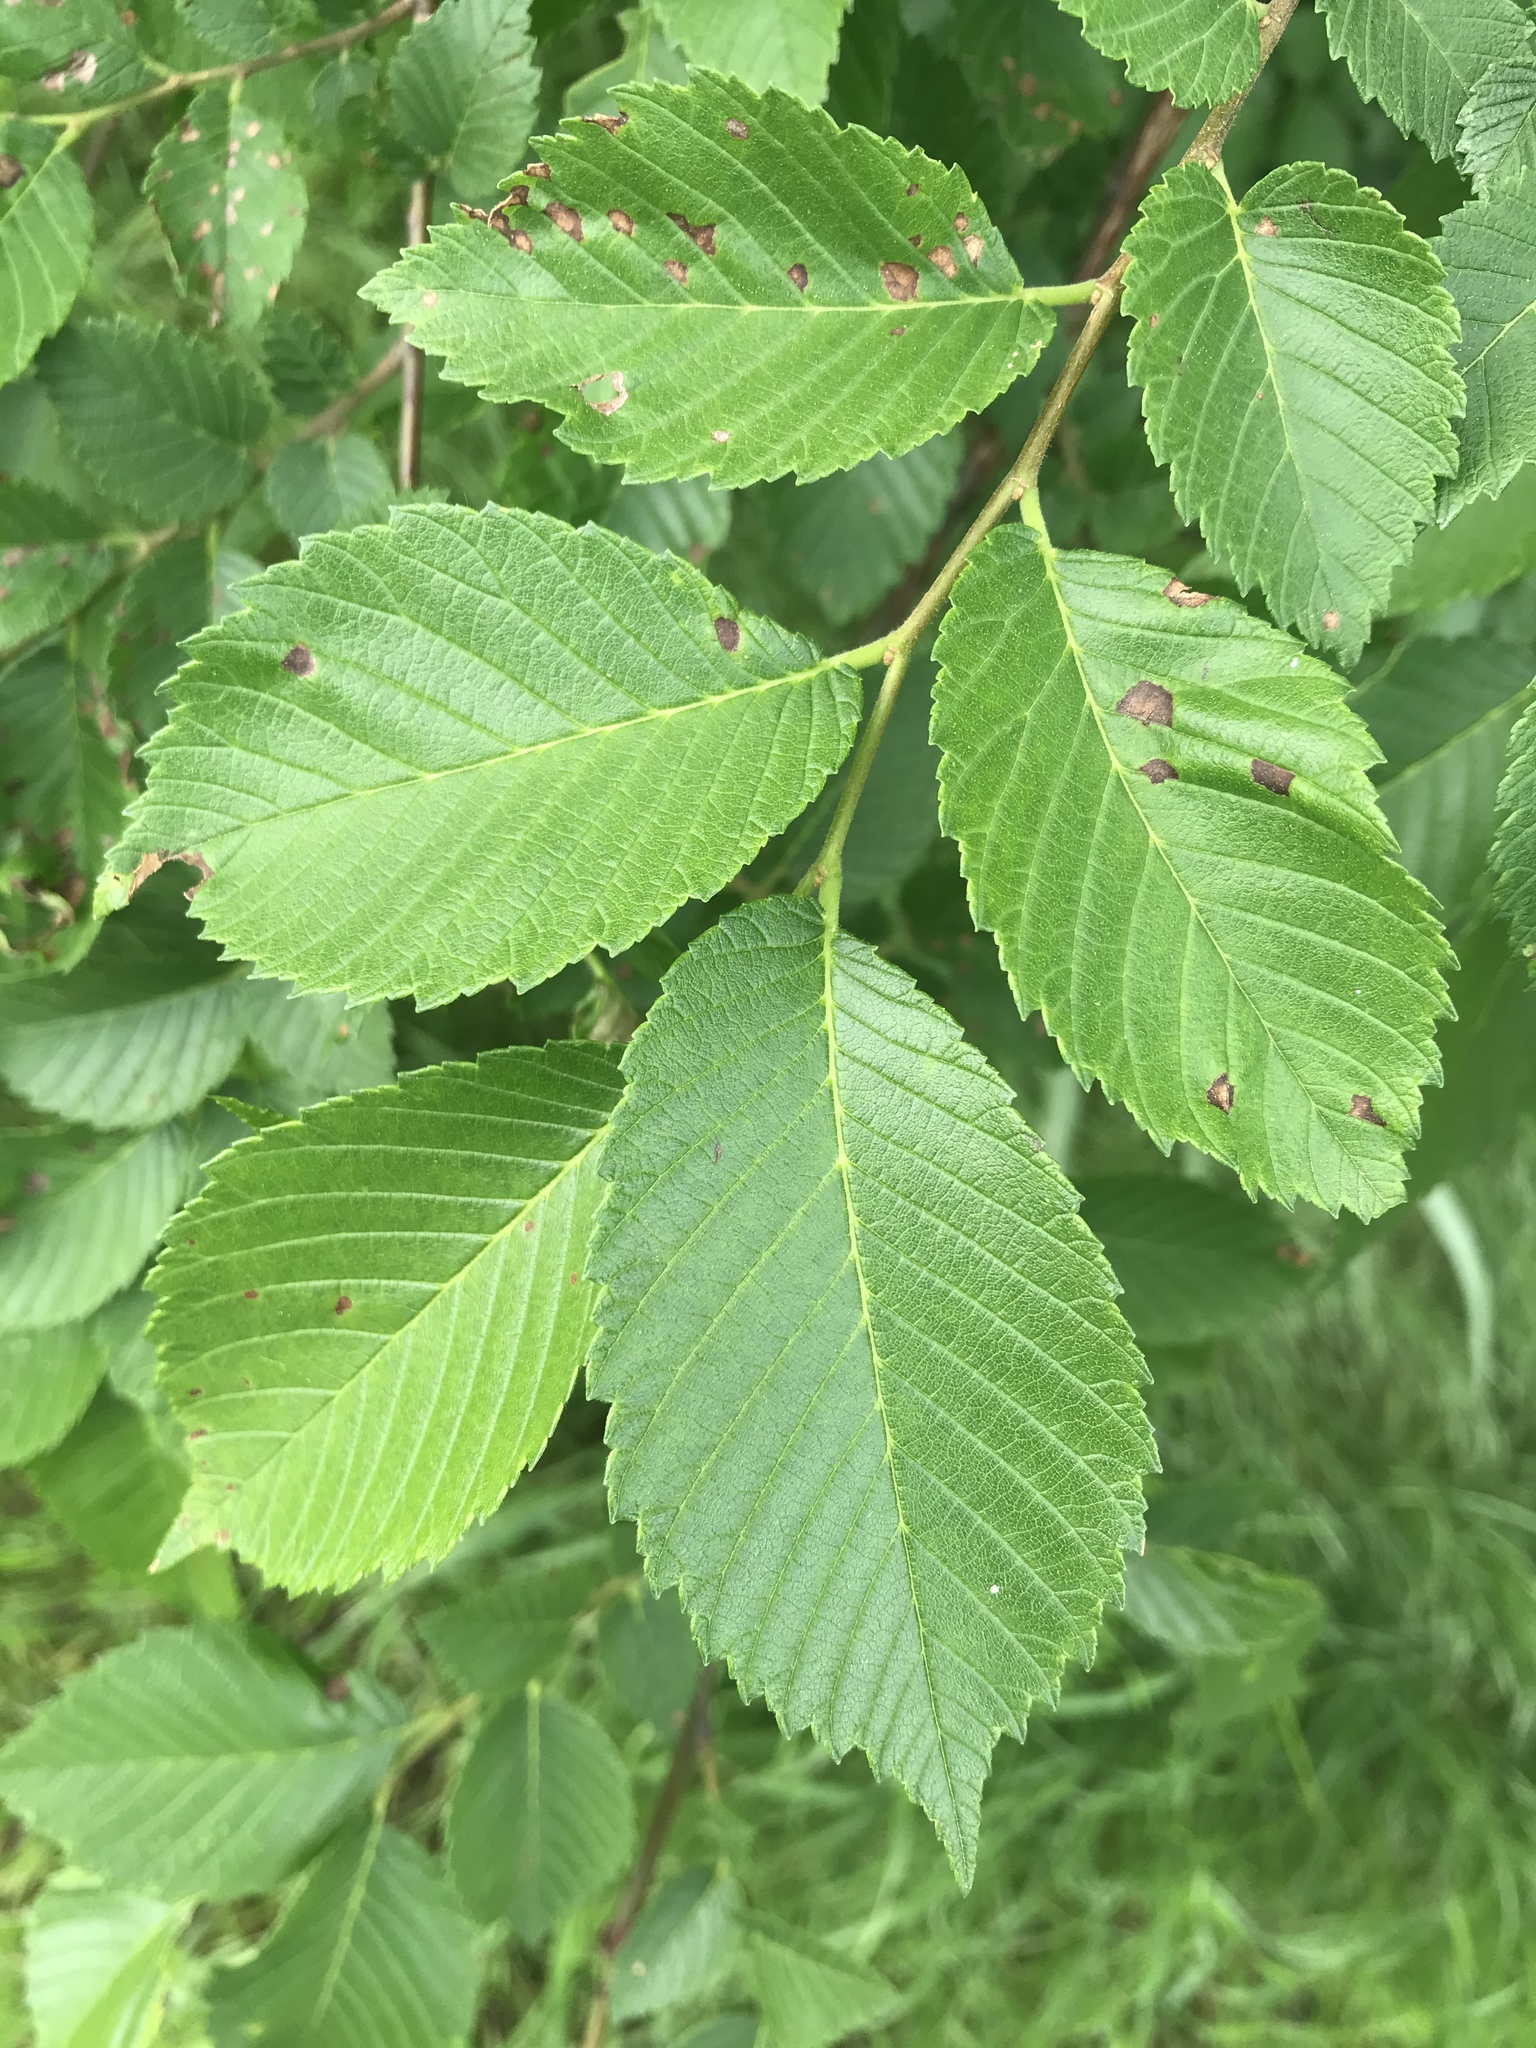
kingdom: Plantae
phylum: Tracheophyta
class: Magnoliopsida
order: Rosales
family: Ulmaceae
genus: Ulmus
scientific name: Ulmus americana
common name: American elm
